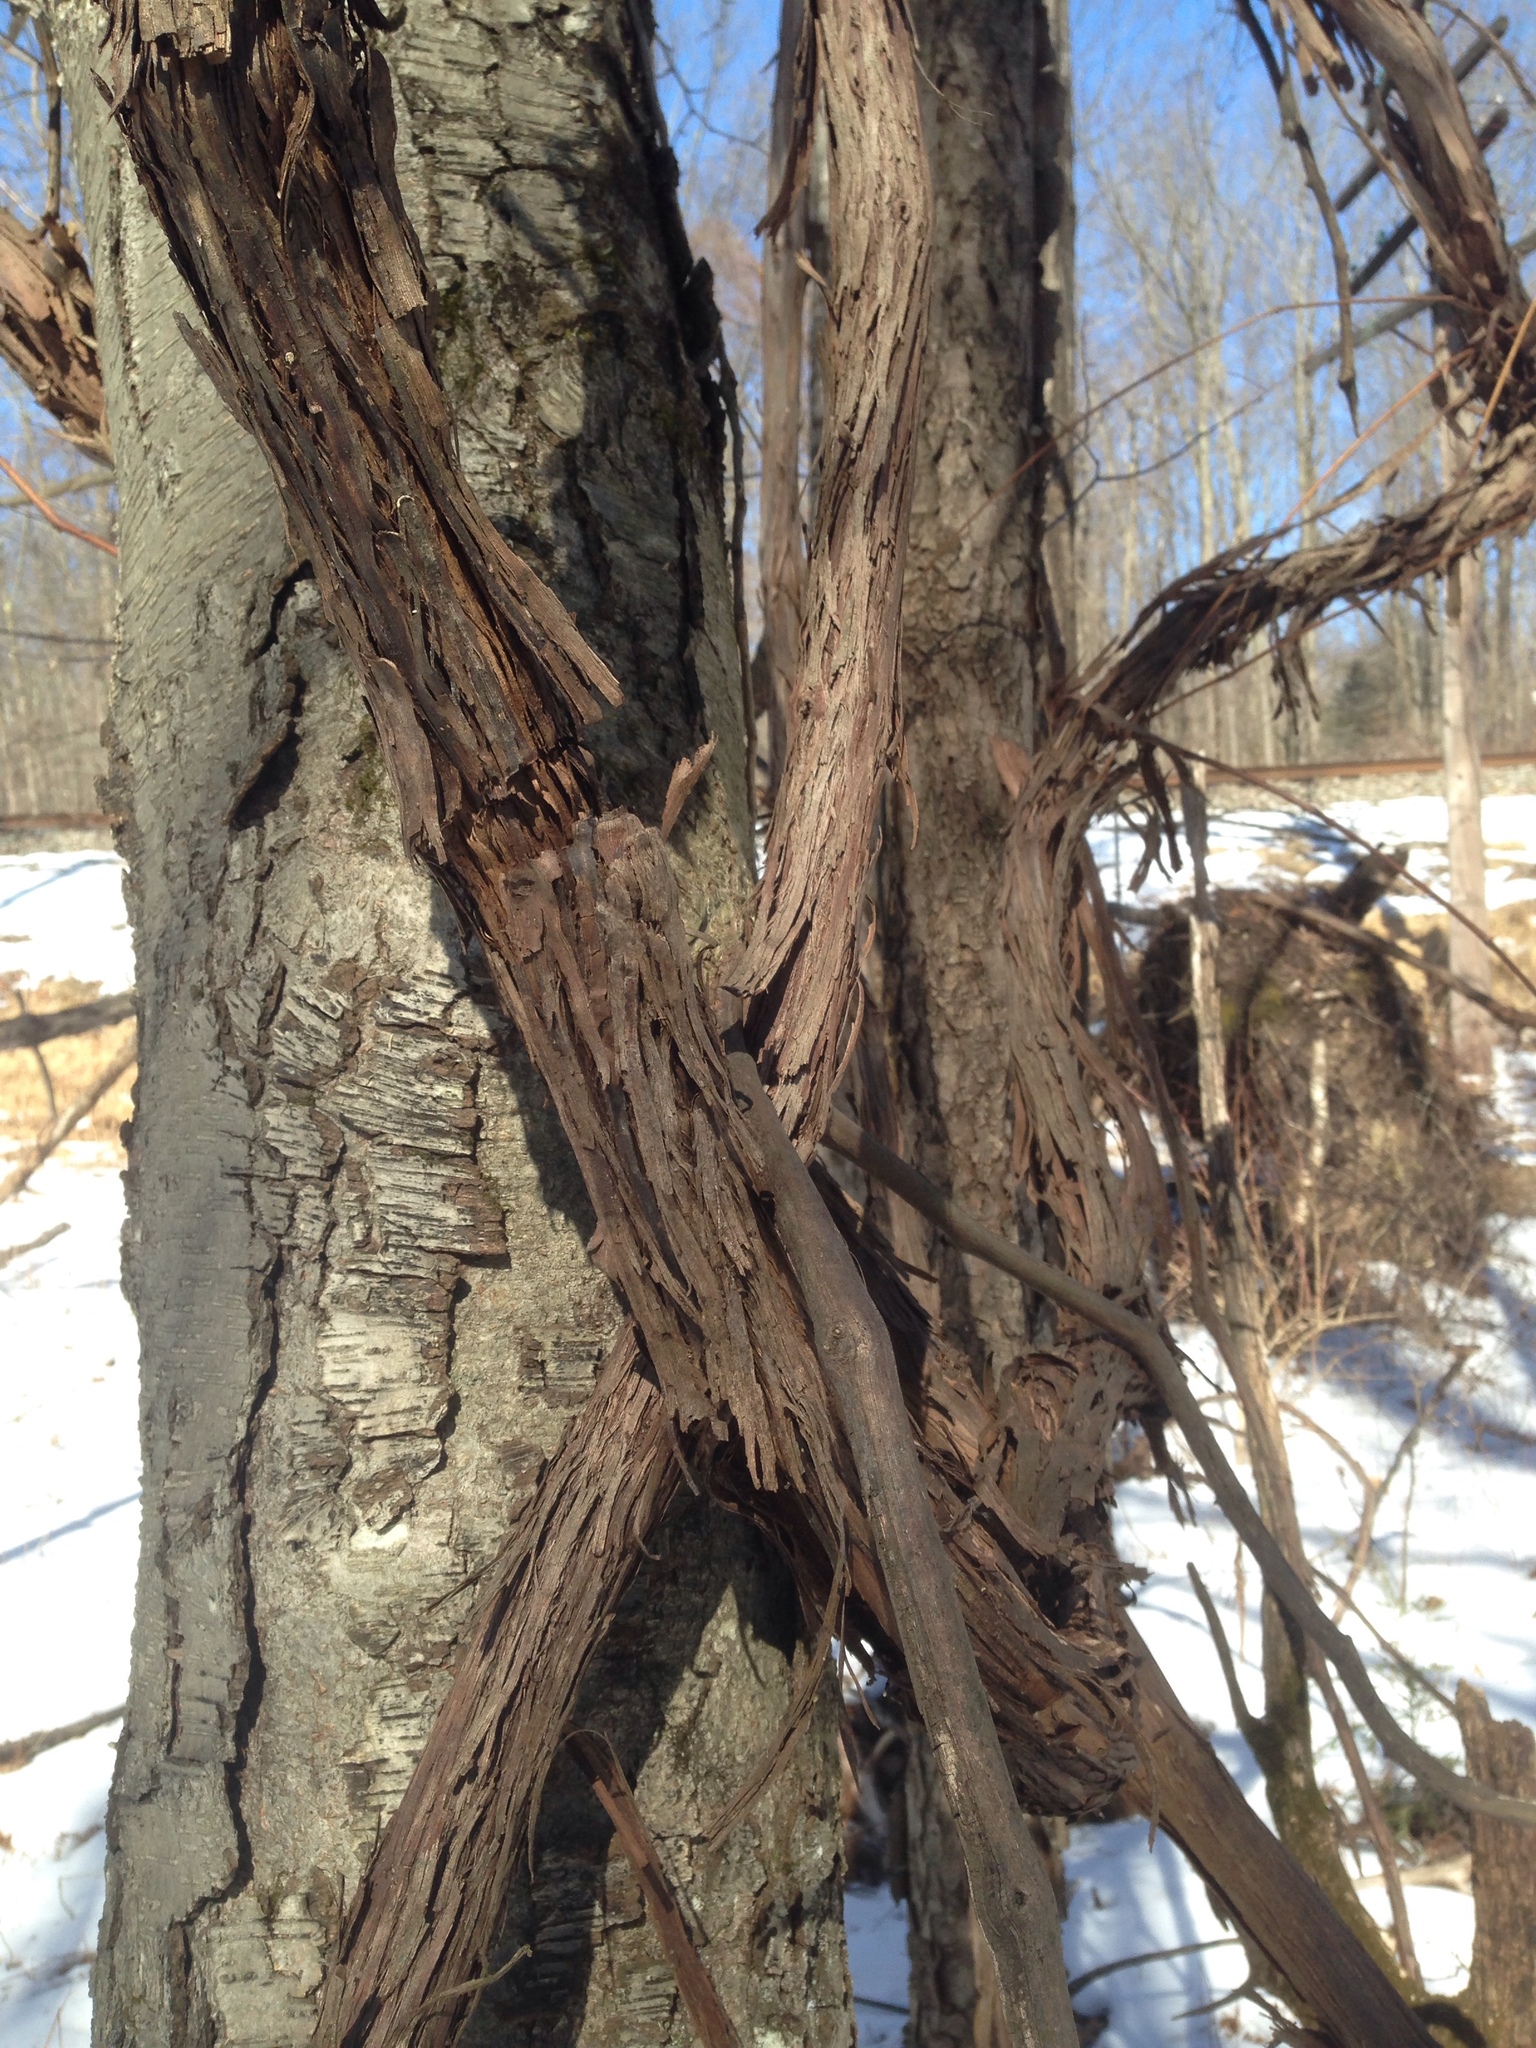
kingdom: Plantae
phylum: Tracheophyta
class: Magnoliopsida
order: Vitales
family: Vitaceae
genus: Vitis
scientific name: Vitis
